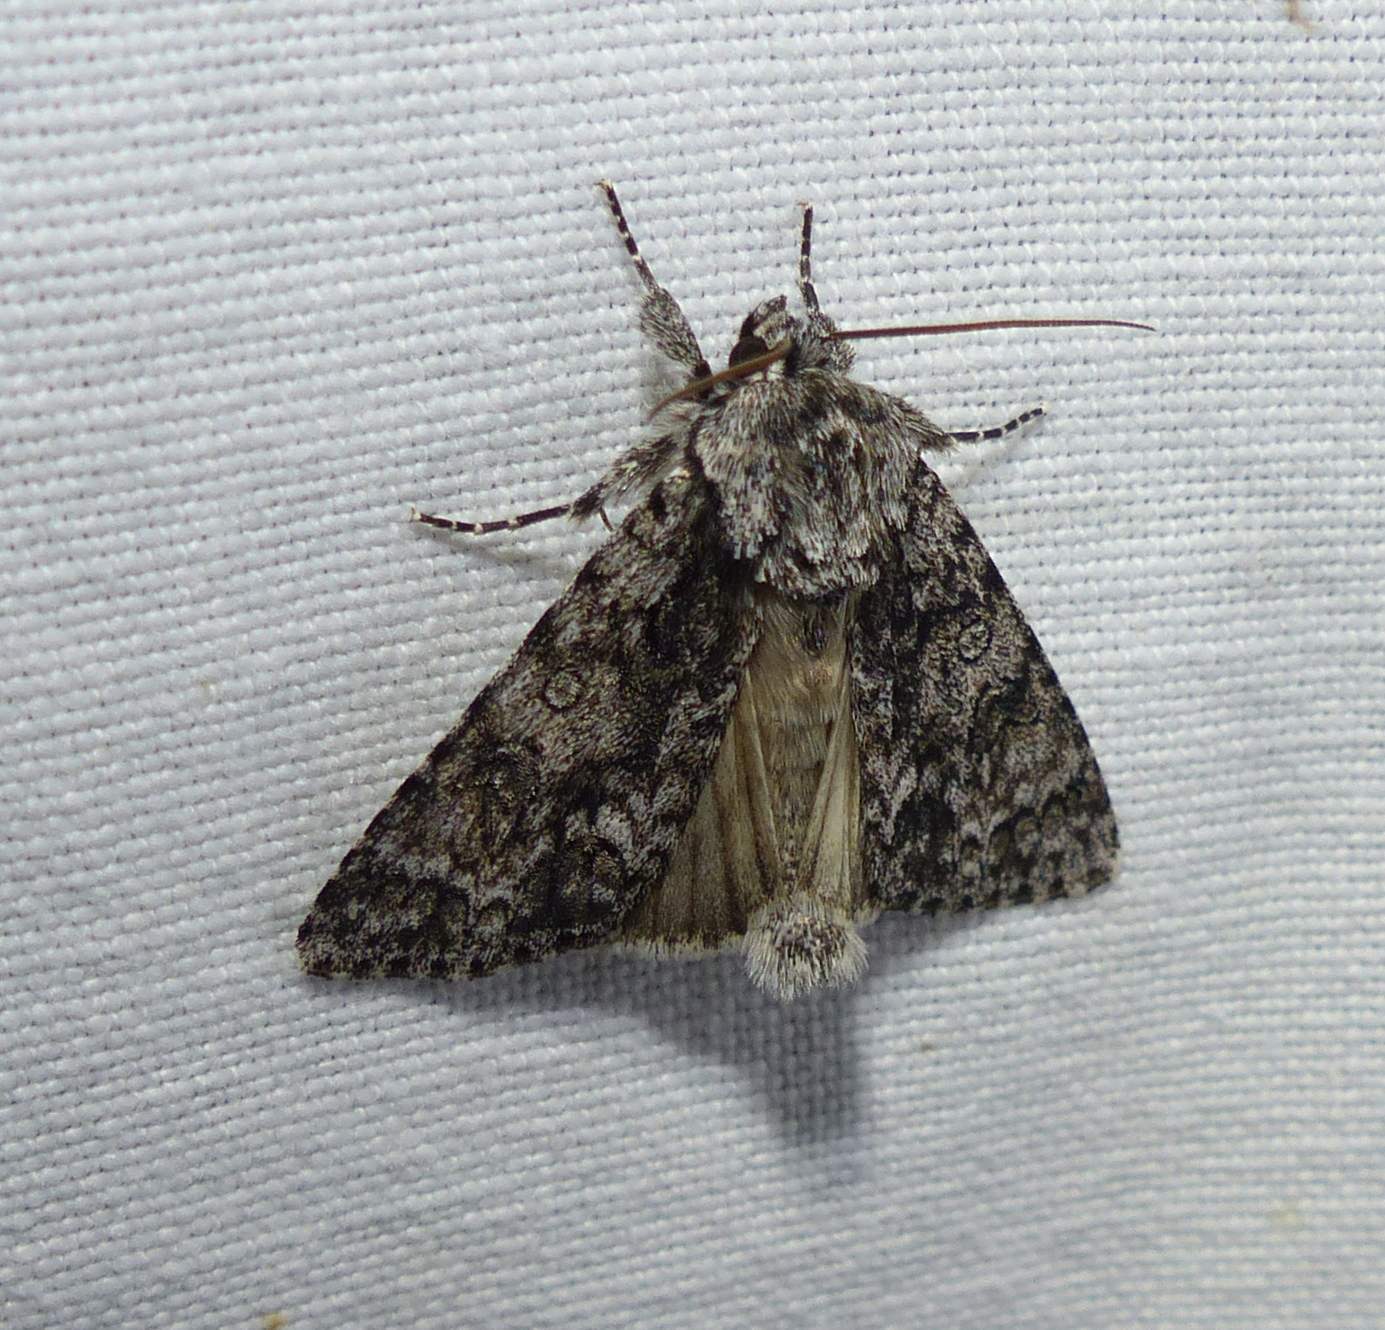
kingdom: Animalia
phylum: Arthropoda
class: Insecta
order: Lepidoptera
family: Noctuidae
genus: Acronicta
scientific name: Acronicta impressa
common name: Impressed dagger
